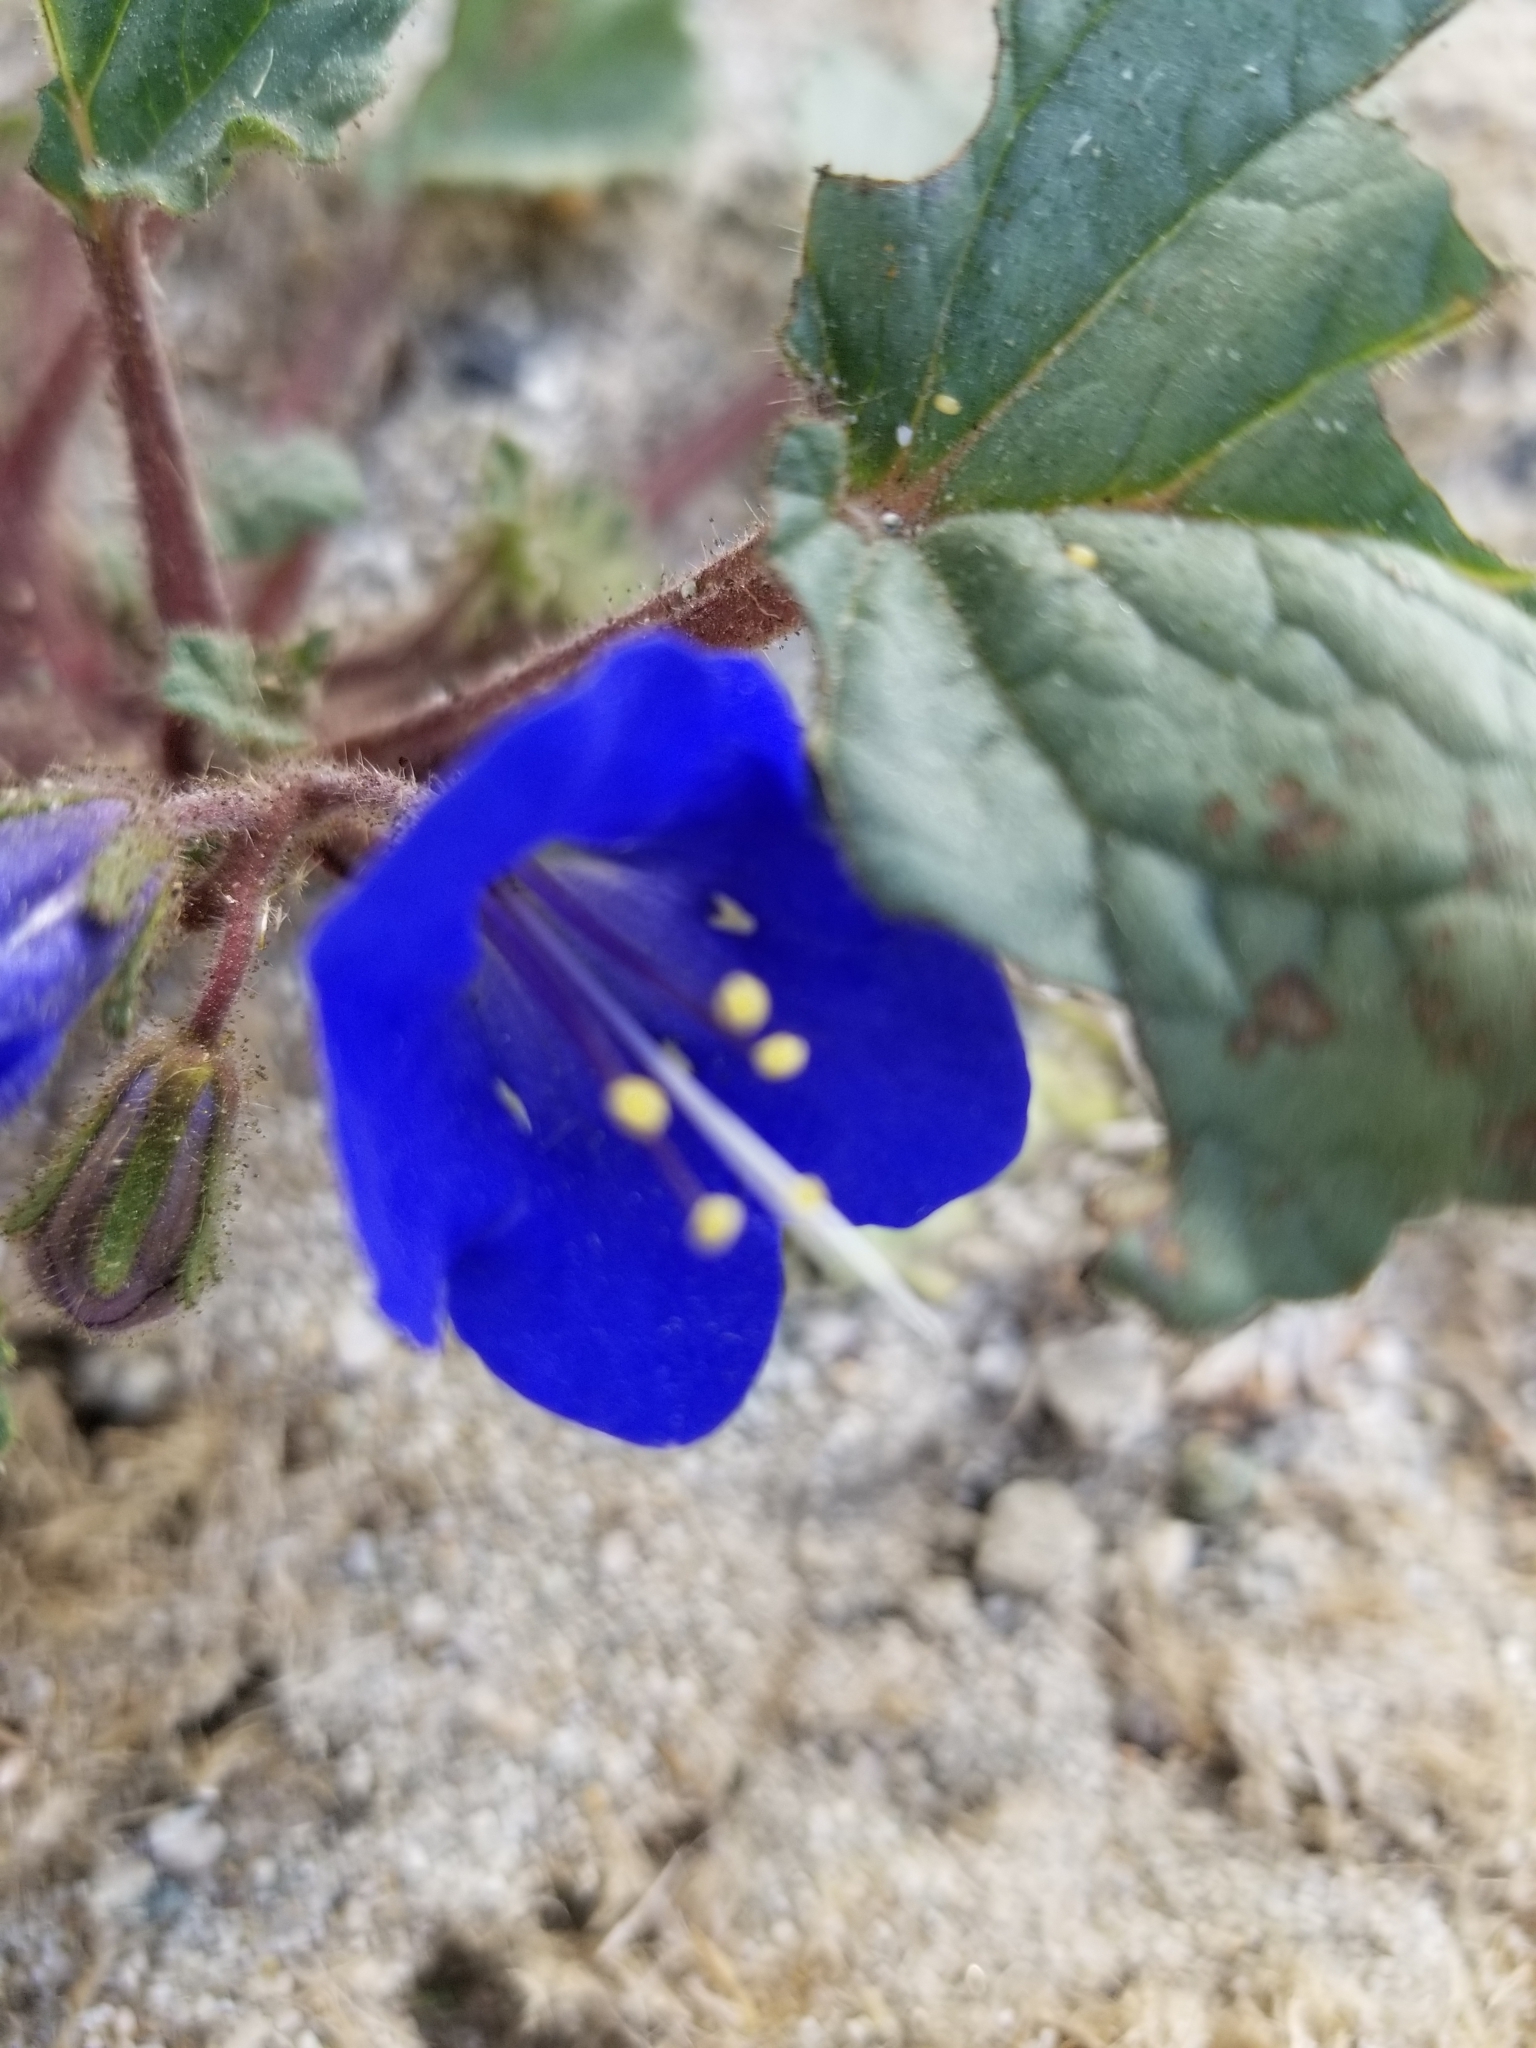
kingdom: Plantae
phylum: Tracheophyta
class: Magnoliopsida
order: Boraginales
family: Hydrophyllaceae
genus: Phacelia
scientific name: Phacelia campanularia
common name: California bluebell
